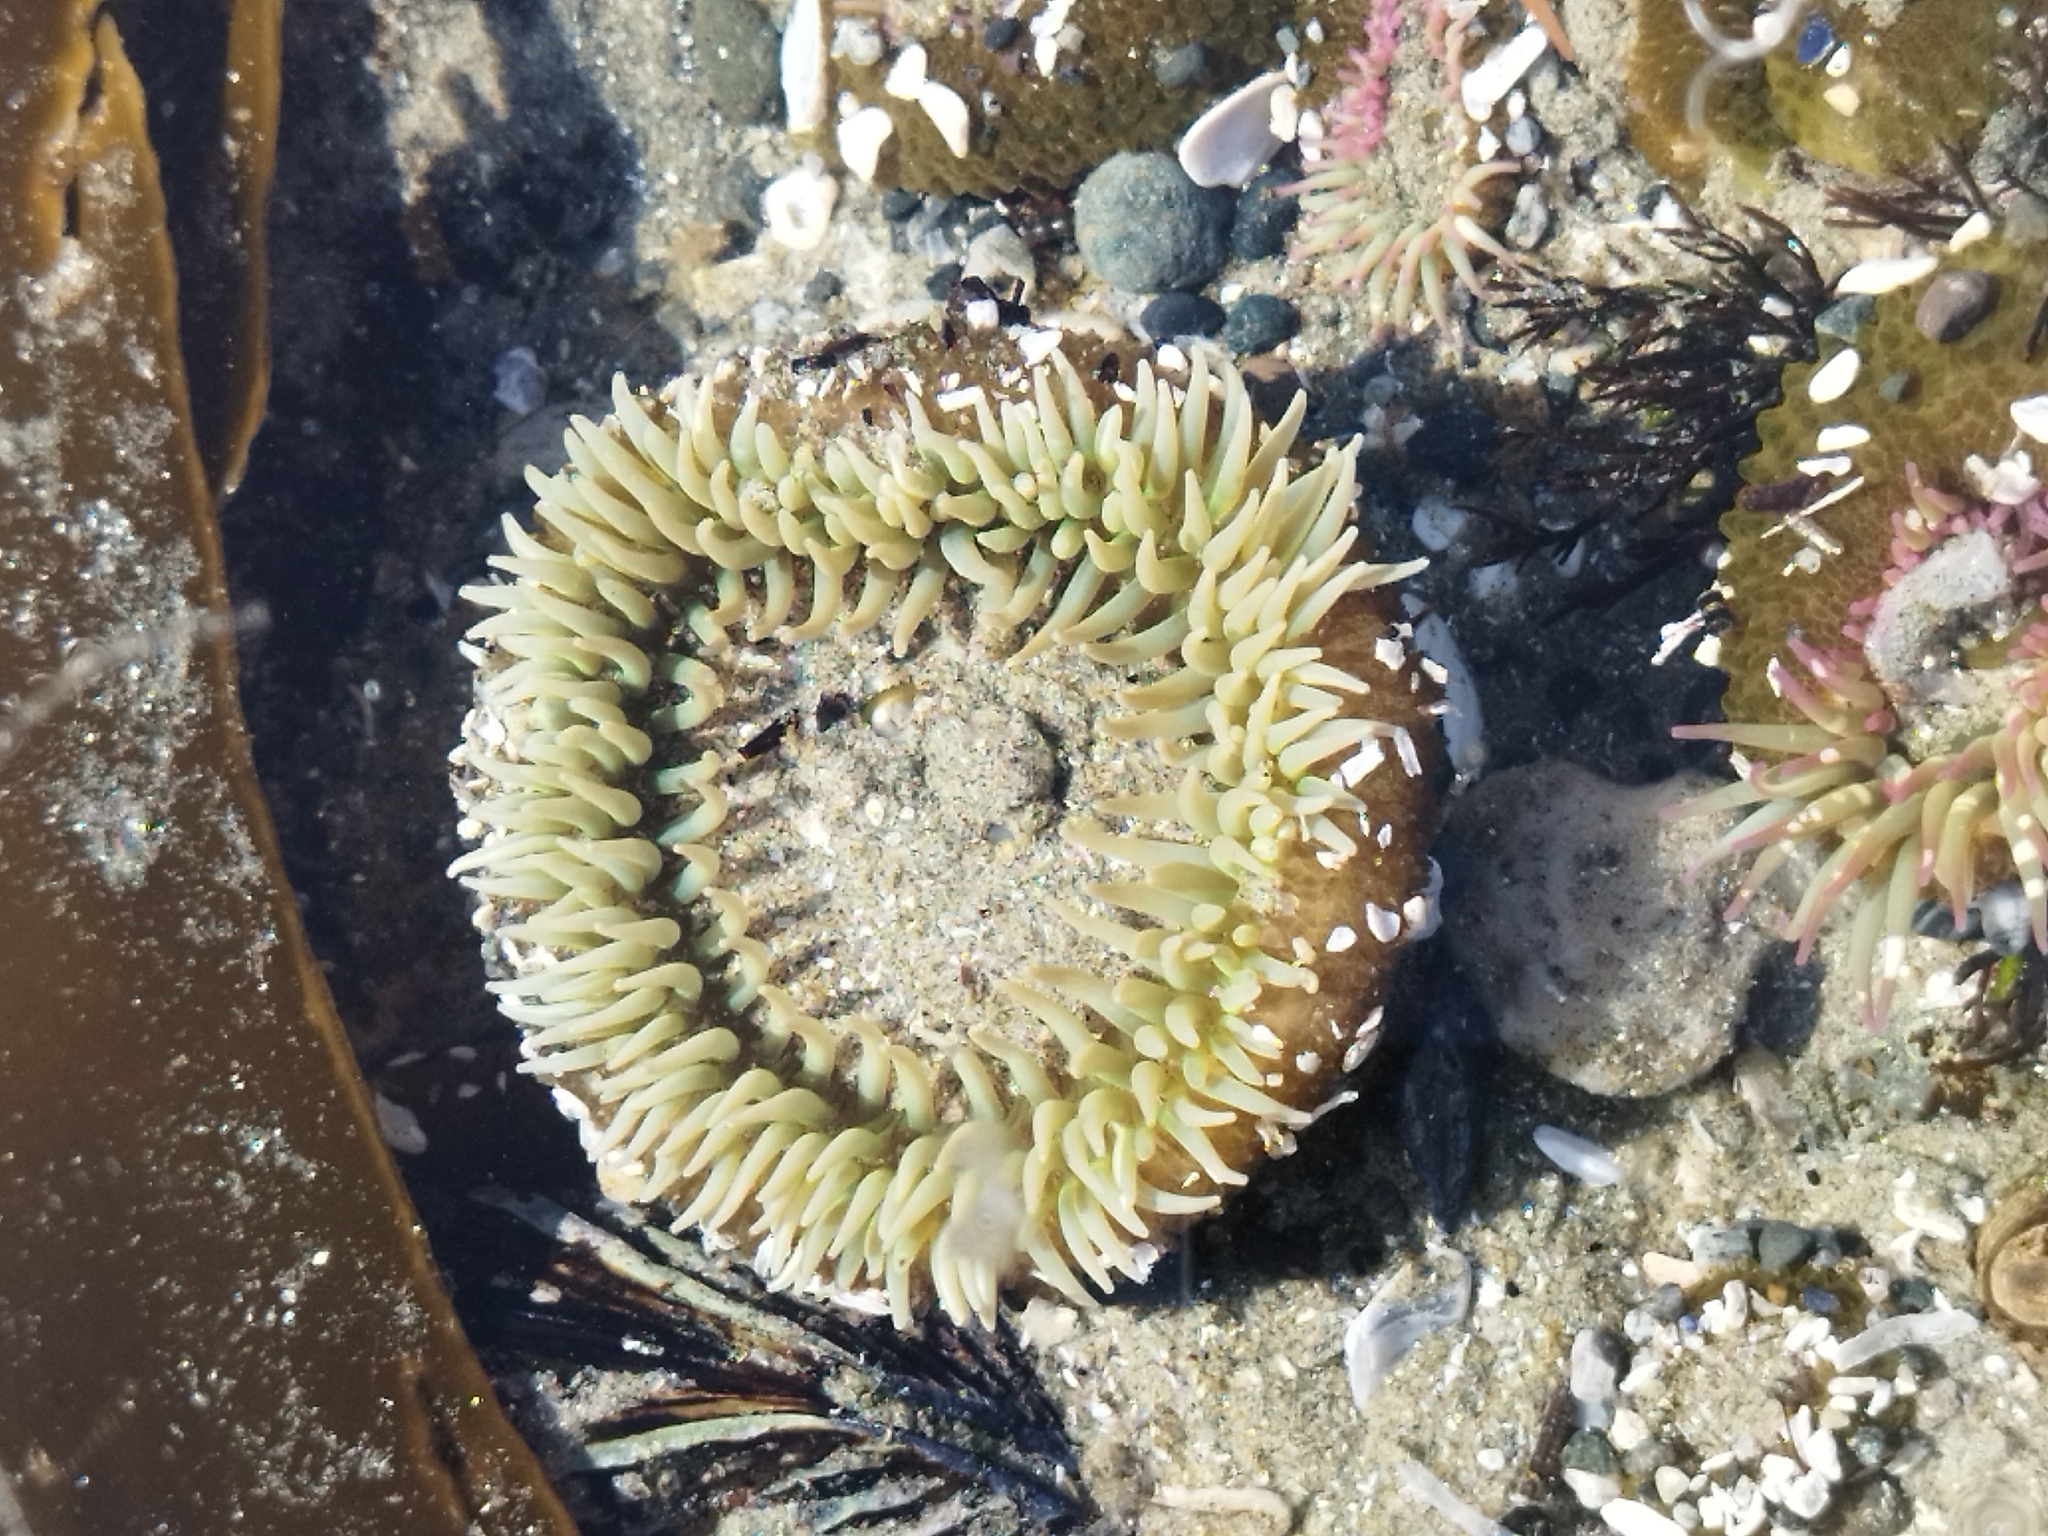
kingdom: Animalia
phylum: Cnidaria
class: Anthozoa
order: Actiniaria
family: Actiniidae
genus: Anthopleura
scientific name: Anthopleura xanthogrammica
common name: Giant green anemone
